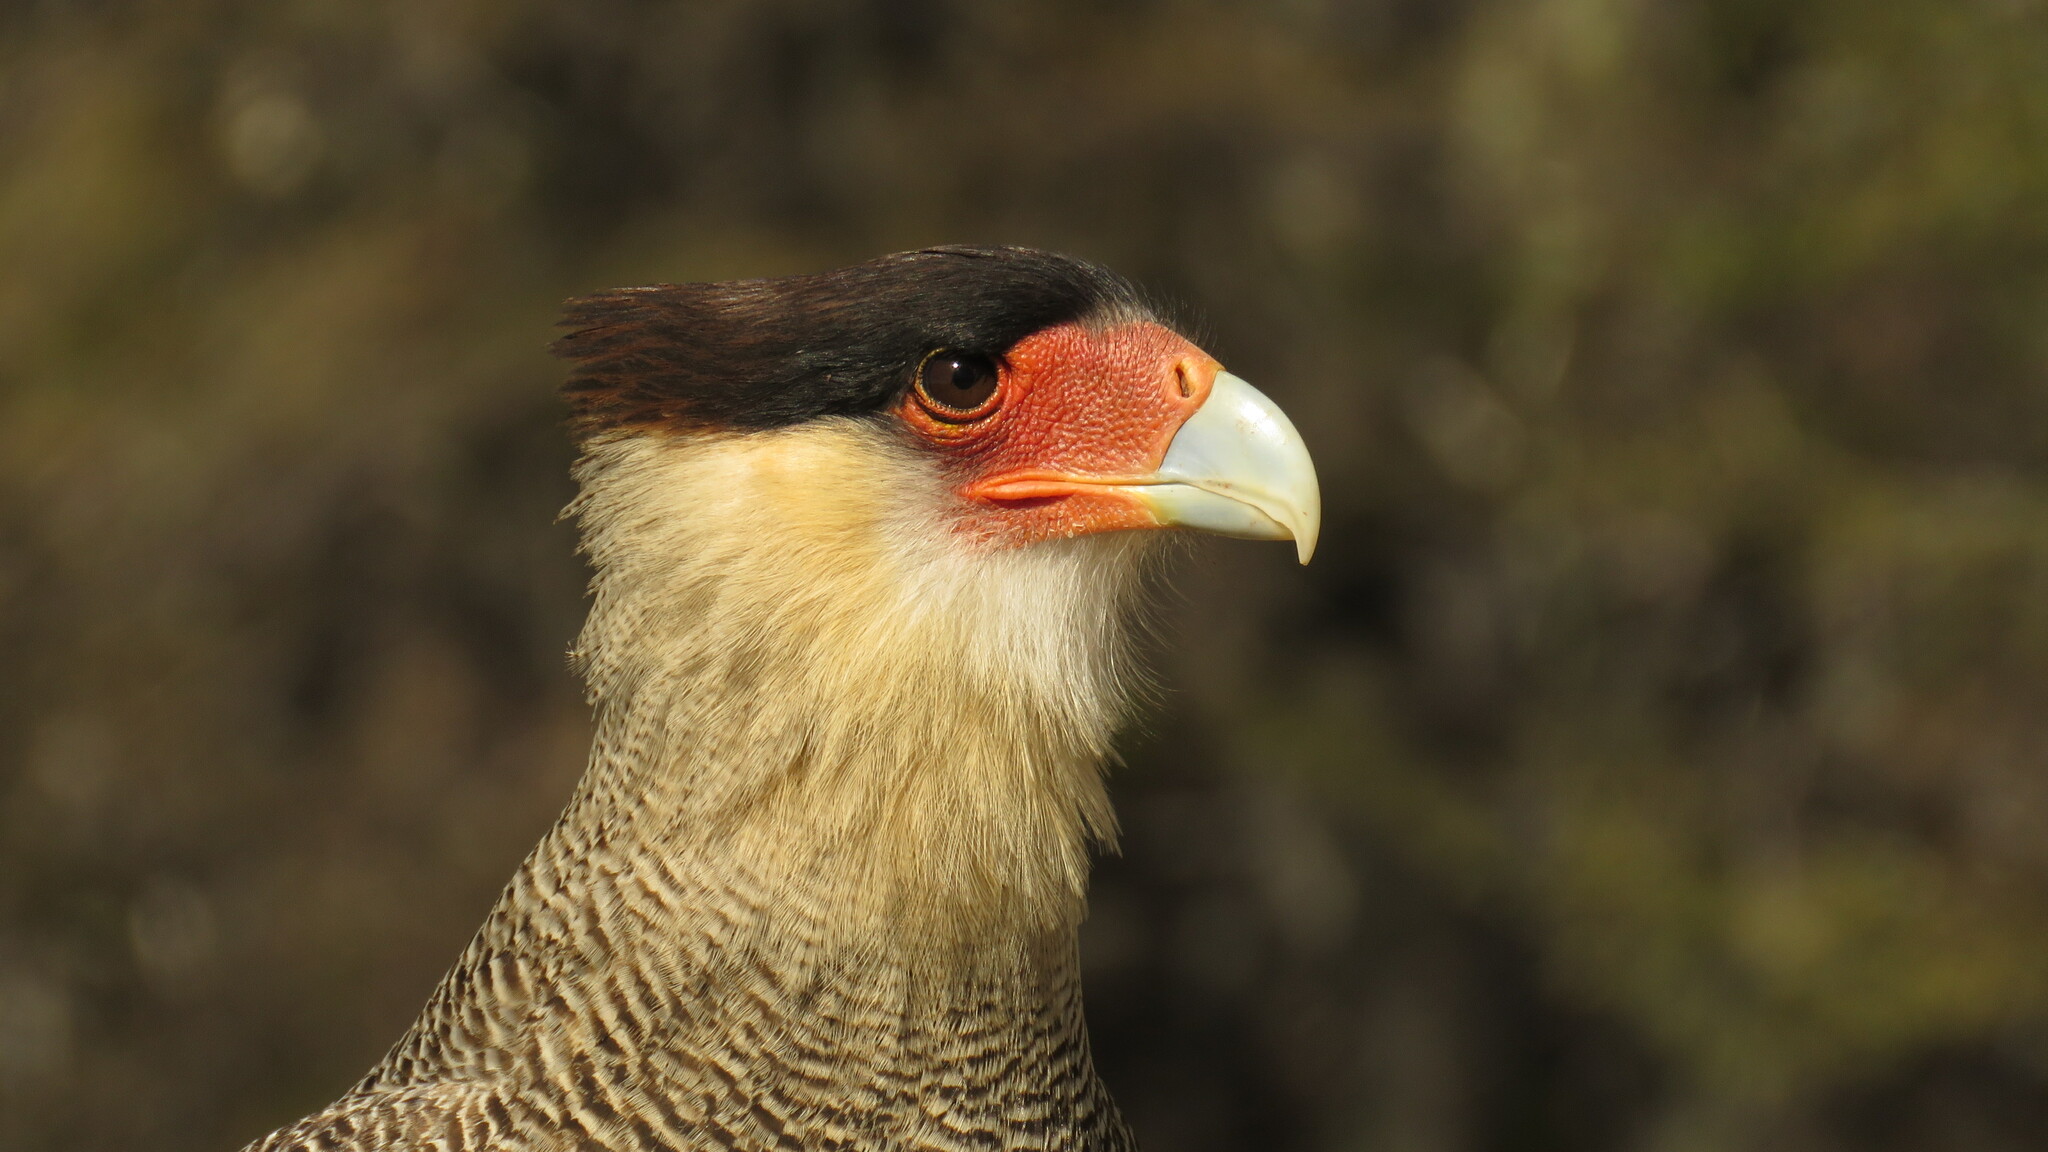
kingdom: Animalia
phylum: Chordata
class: Aves
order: Falconiformes
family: Falconidae
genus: Caracara
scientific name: Caracara plancus
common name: Southern caracara
